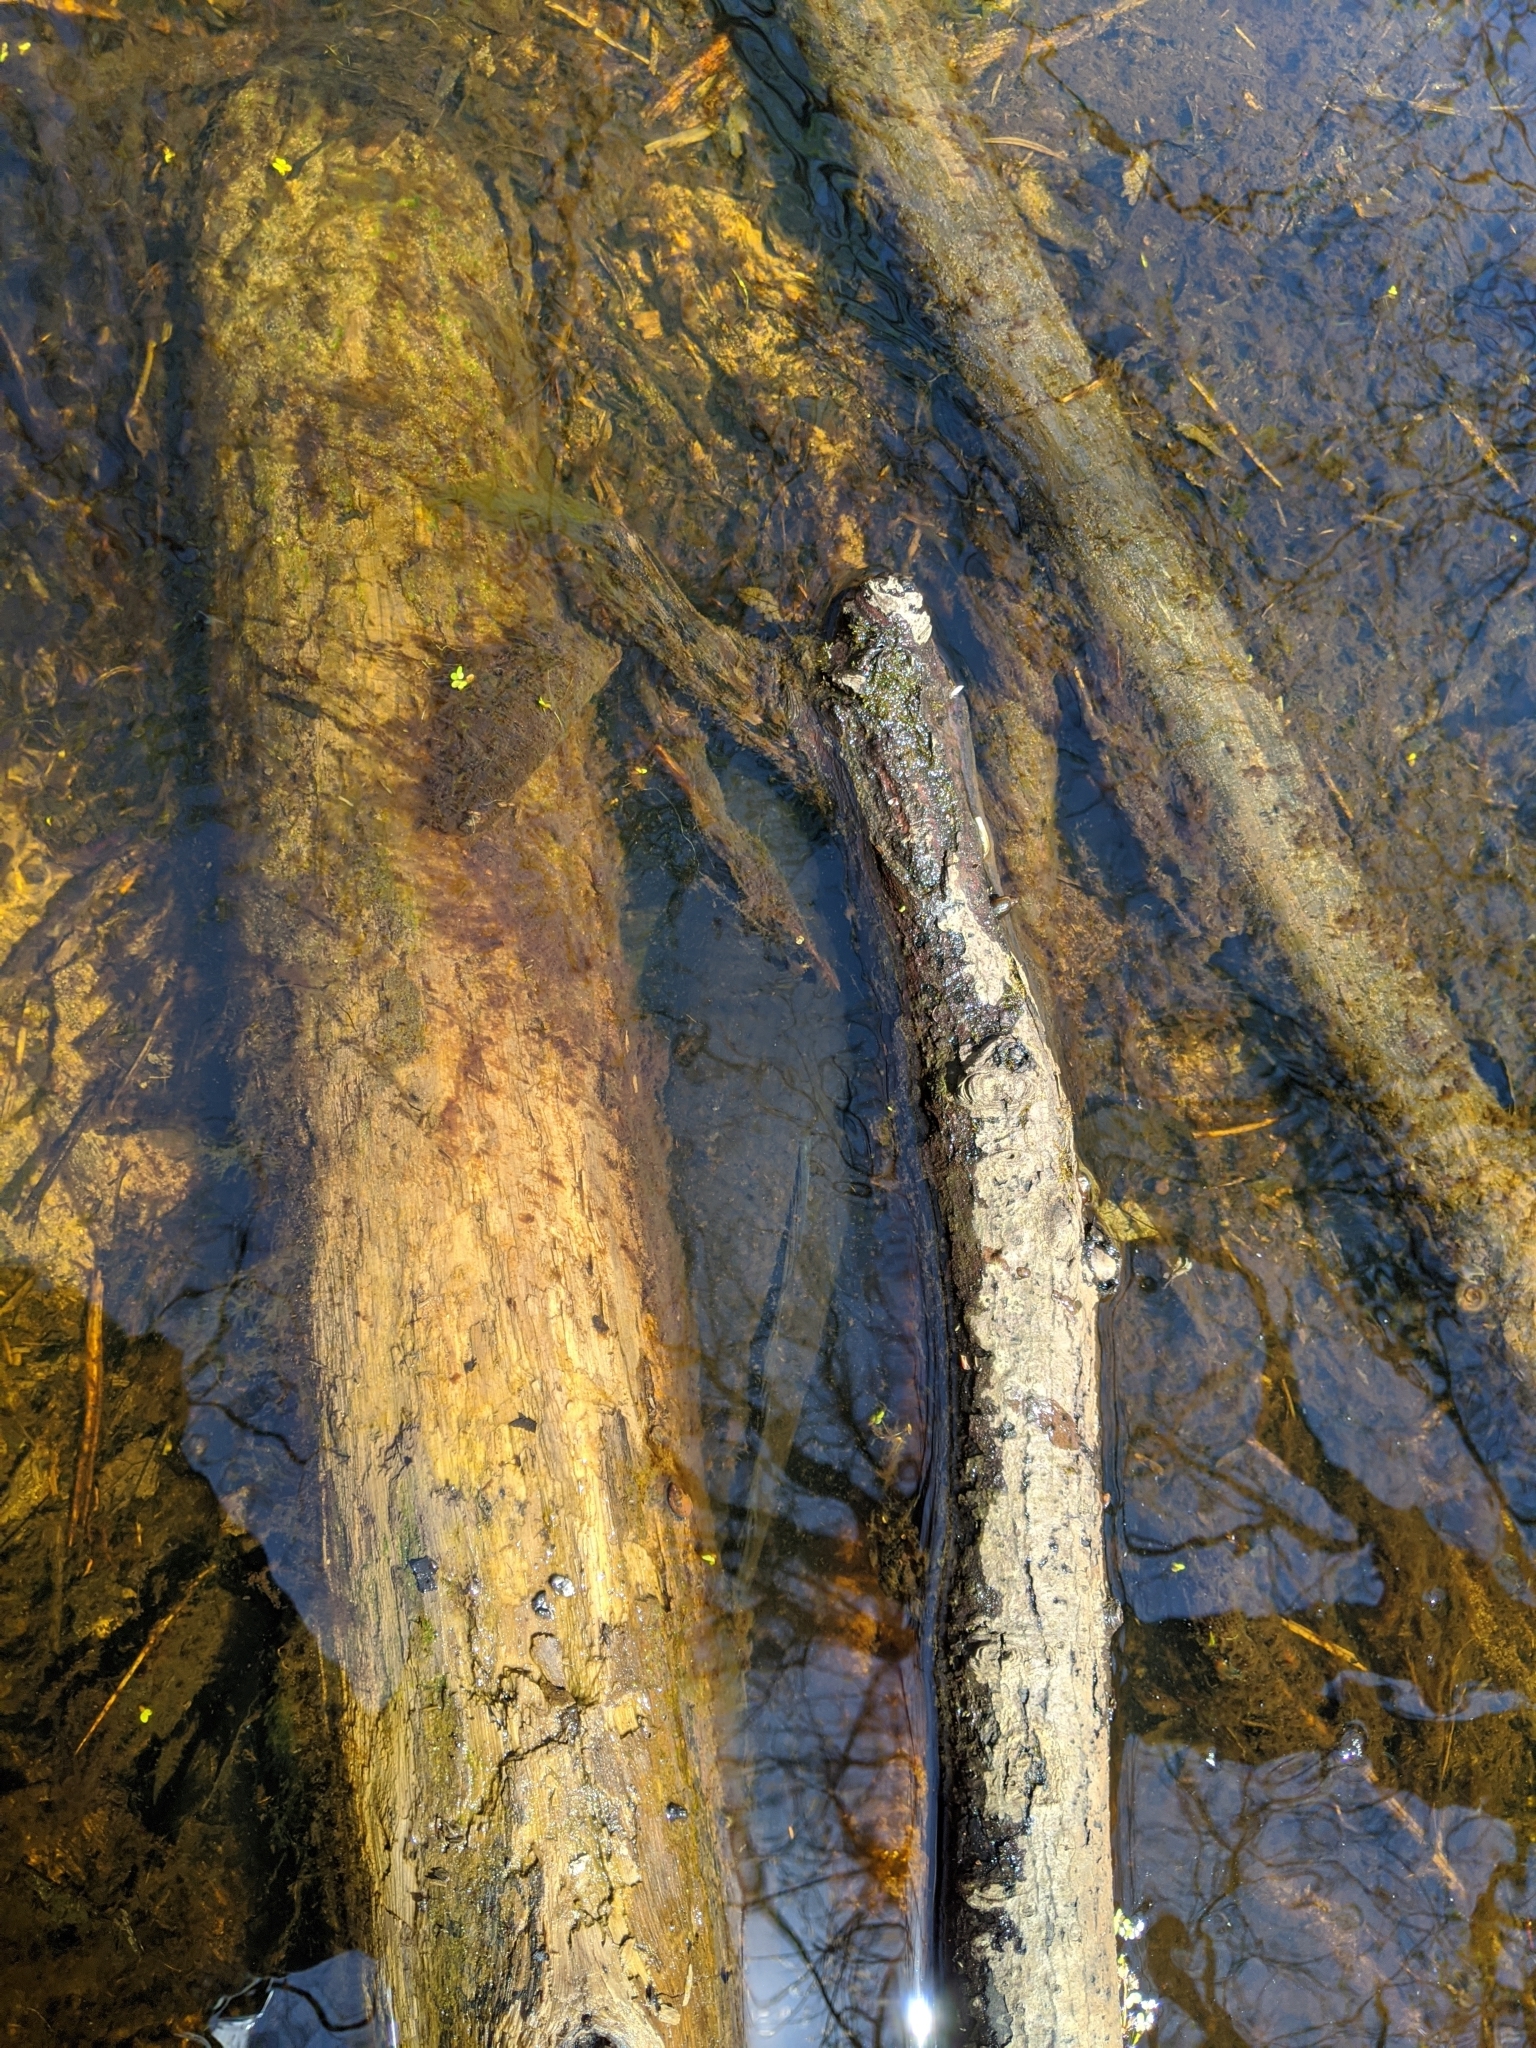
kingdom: Animalia
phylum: Chordata
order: Amiiformes
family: Amiidae
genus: Amia
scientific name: Amia calva
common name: Bowfin
